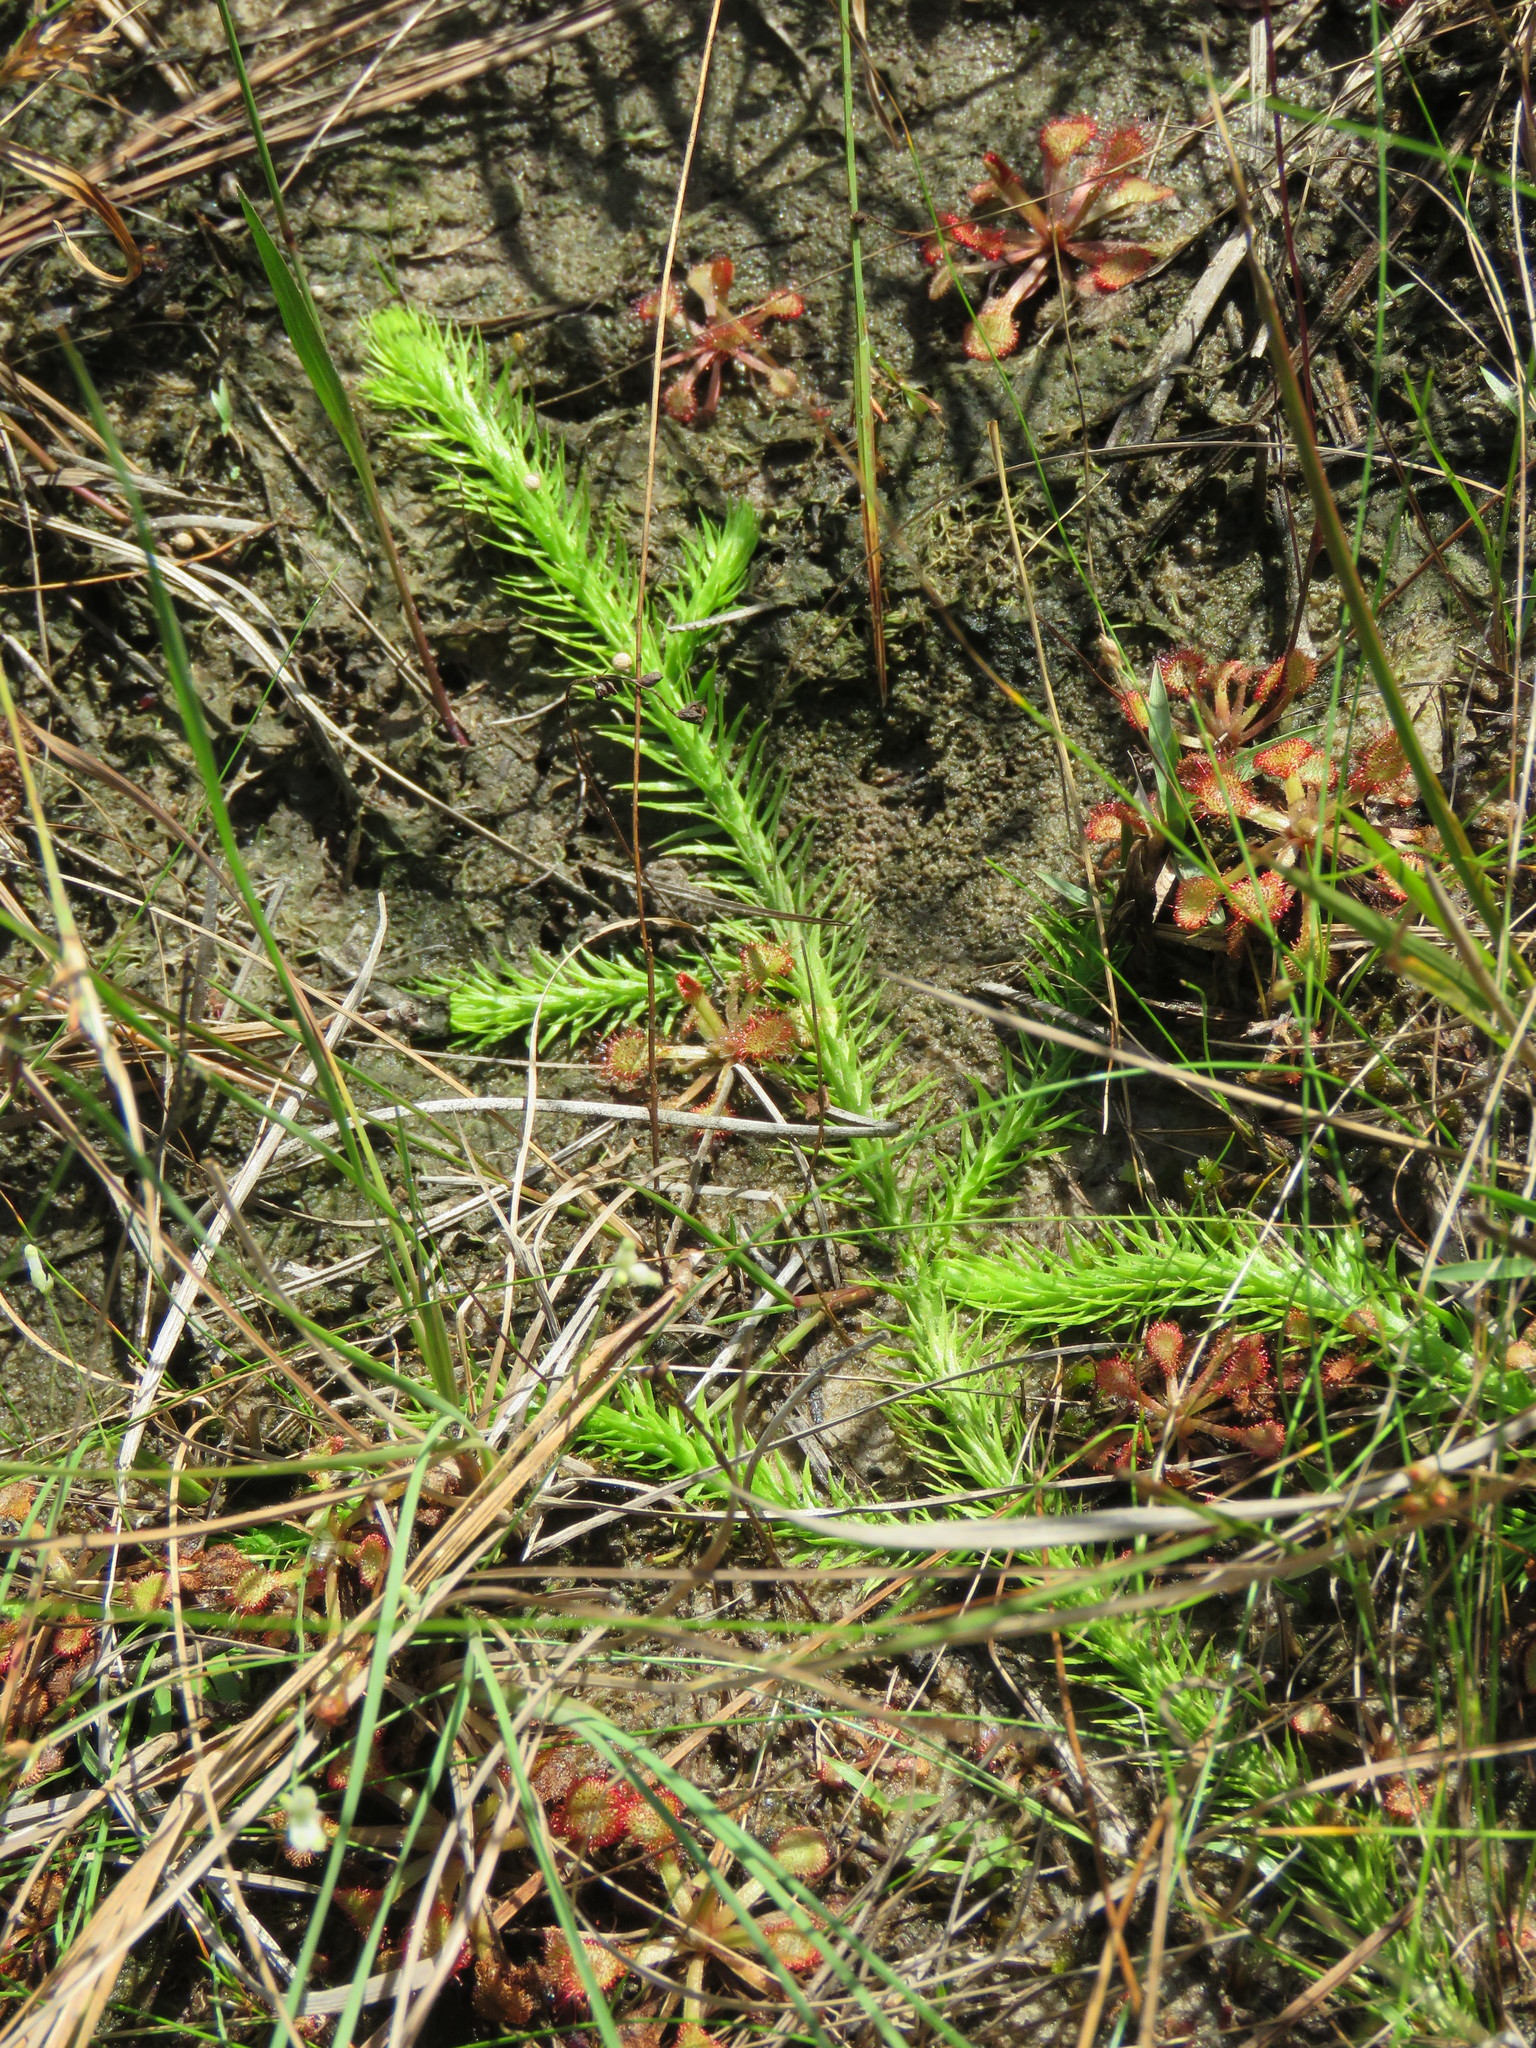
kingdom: Plantae
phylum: Tracheophyta
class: Lycopodiopsida
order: Lycopodiales
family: Lycopodiaceae
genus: Lycopodiella
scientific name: Lycopodiella appressa
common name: Appressed bog clubmoss
